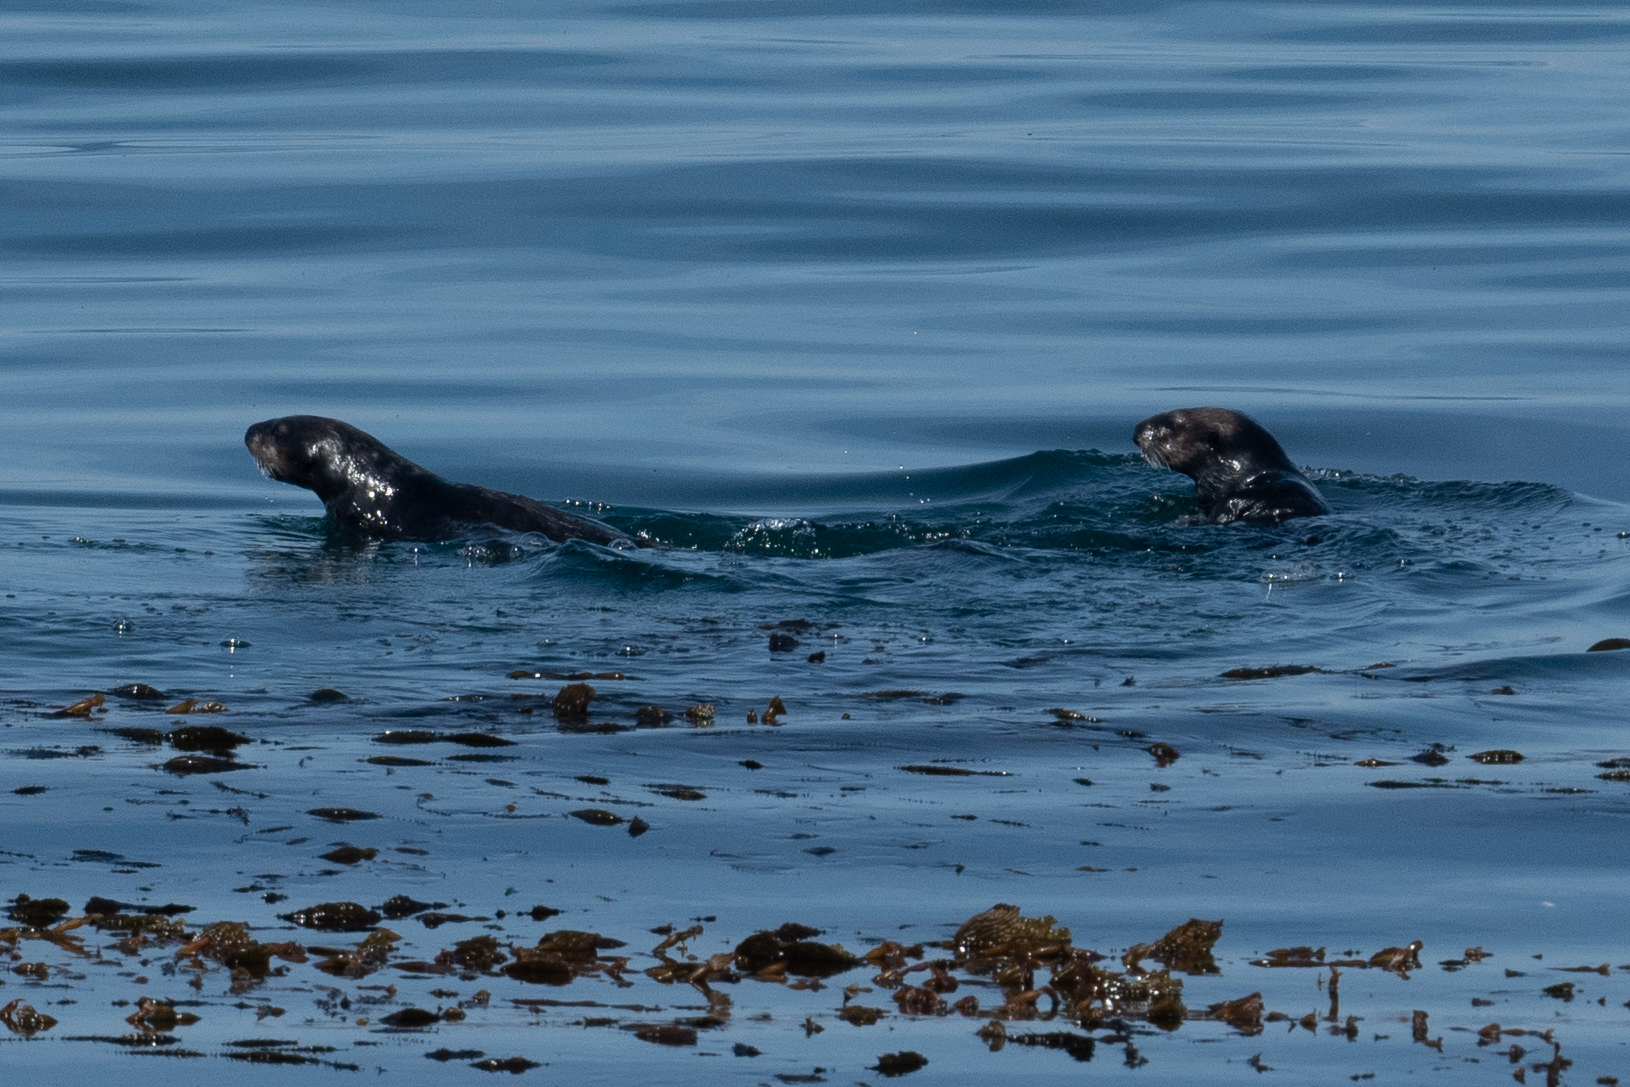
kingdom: Animalia
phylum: Chordata
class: Mammalia
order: Carnivora
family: Mustelidae
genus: Enhydra
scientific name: Enhydra lutris
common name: Sea otter
